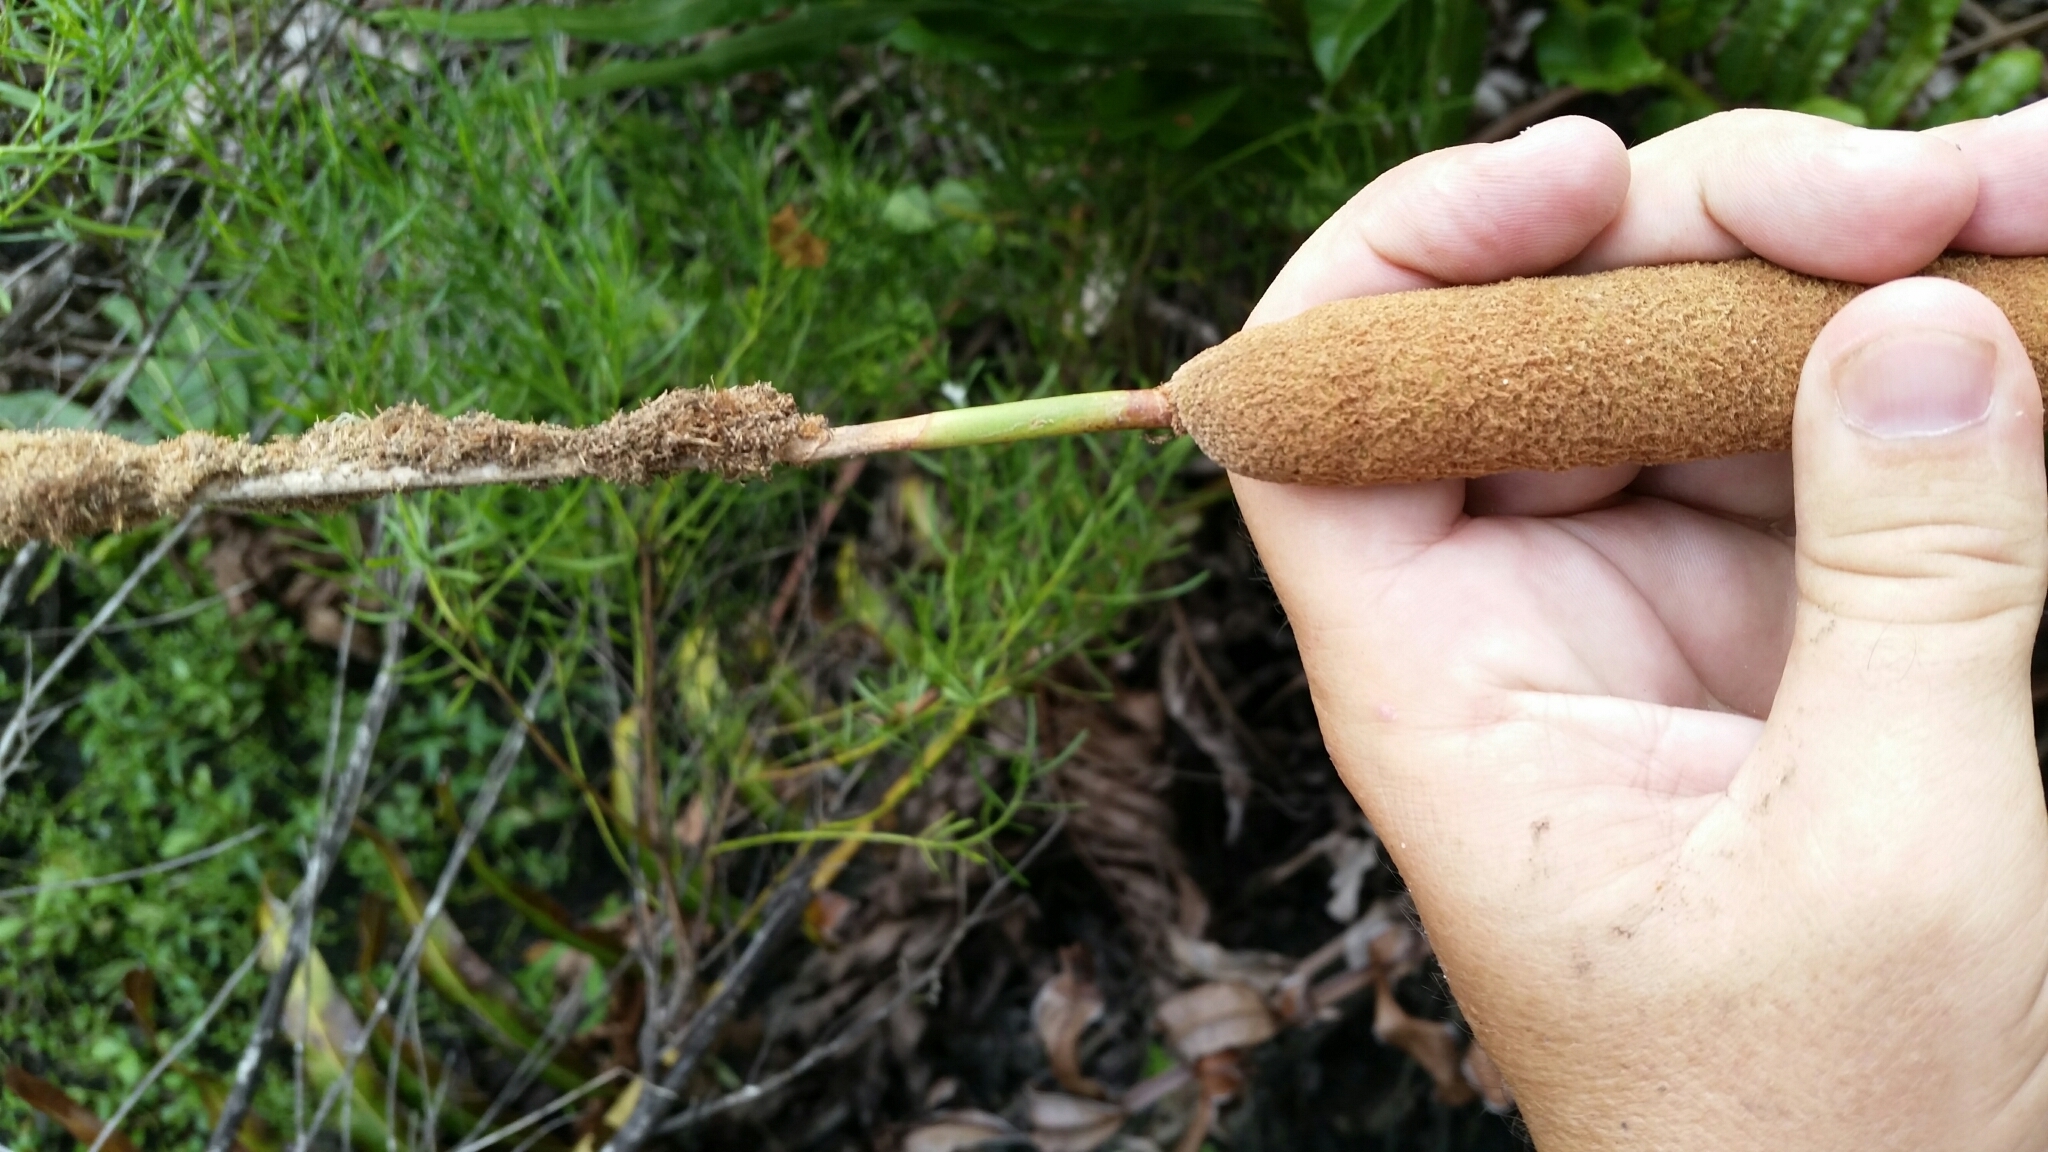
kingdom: Plantae
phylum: Tracheophyta
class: Liliopsida
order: Poales
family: Typhaceae
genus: Typha
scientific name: Typha domingensis
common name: Southern cattail
